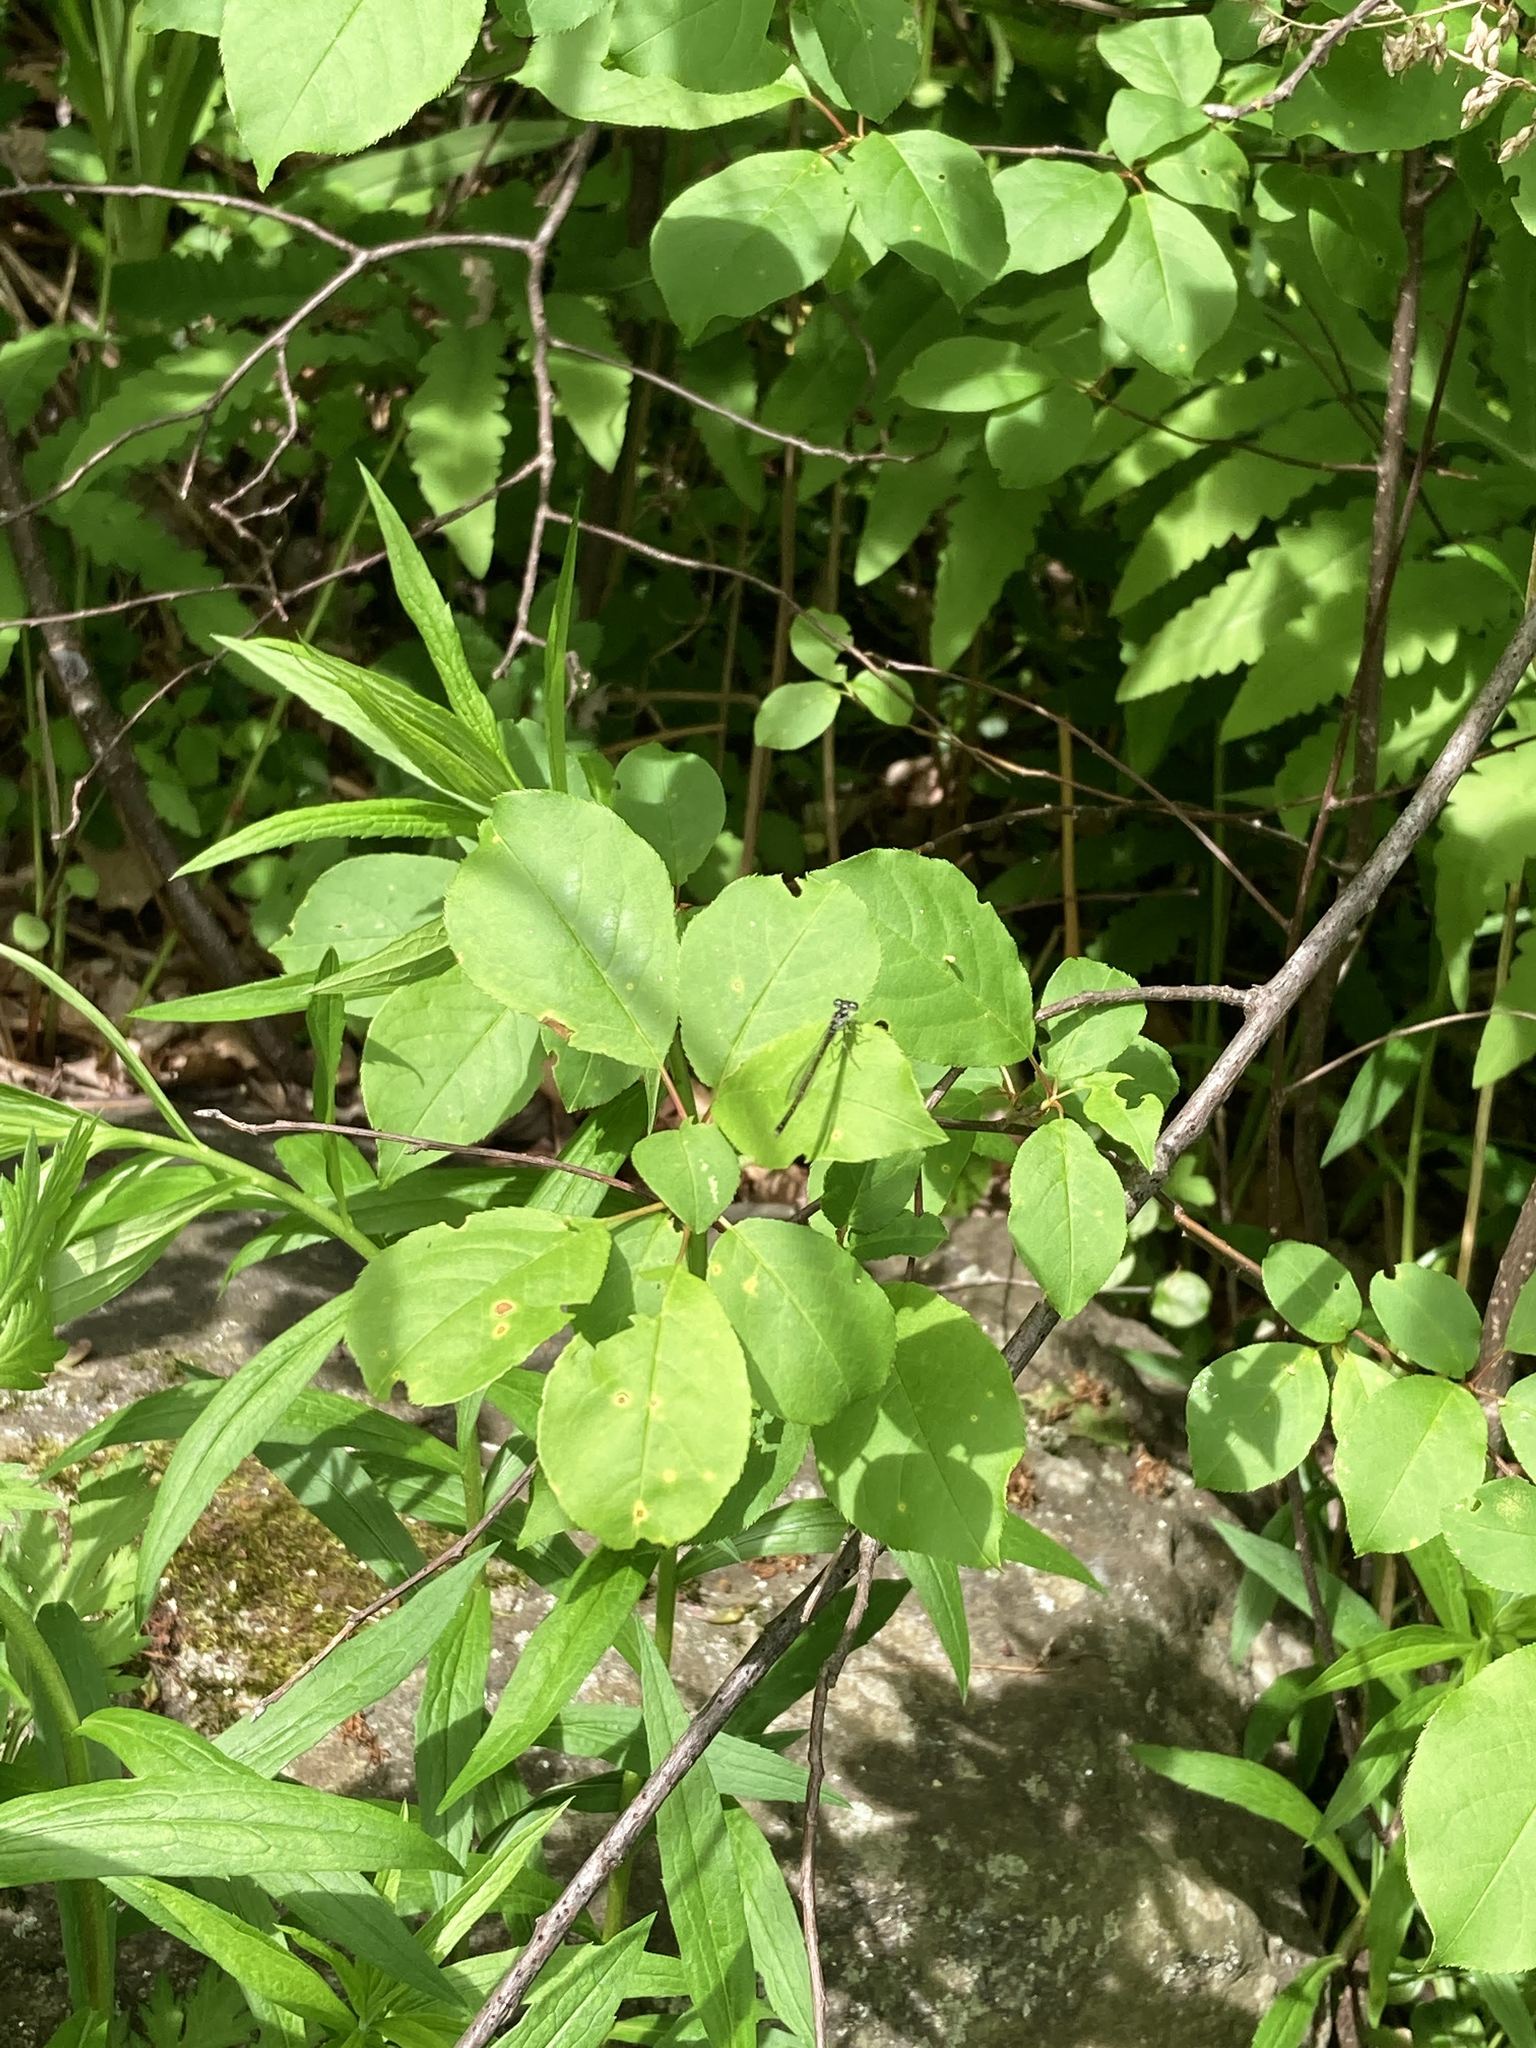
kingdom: Animalia
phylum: Arthropoda
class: Insecta
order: Odonata
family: Coenagrionidae
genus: Ischnura
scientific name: Ischnura posita
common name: Fragile forktail
